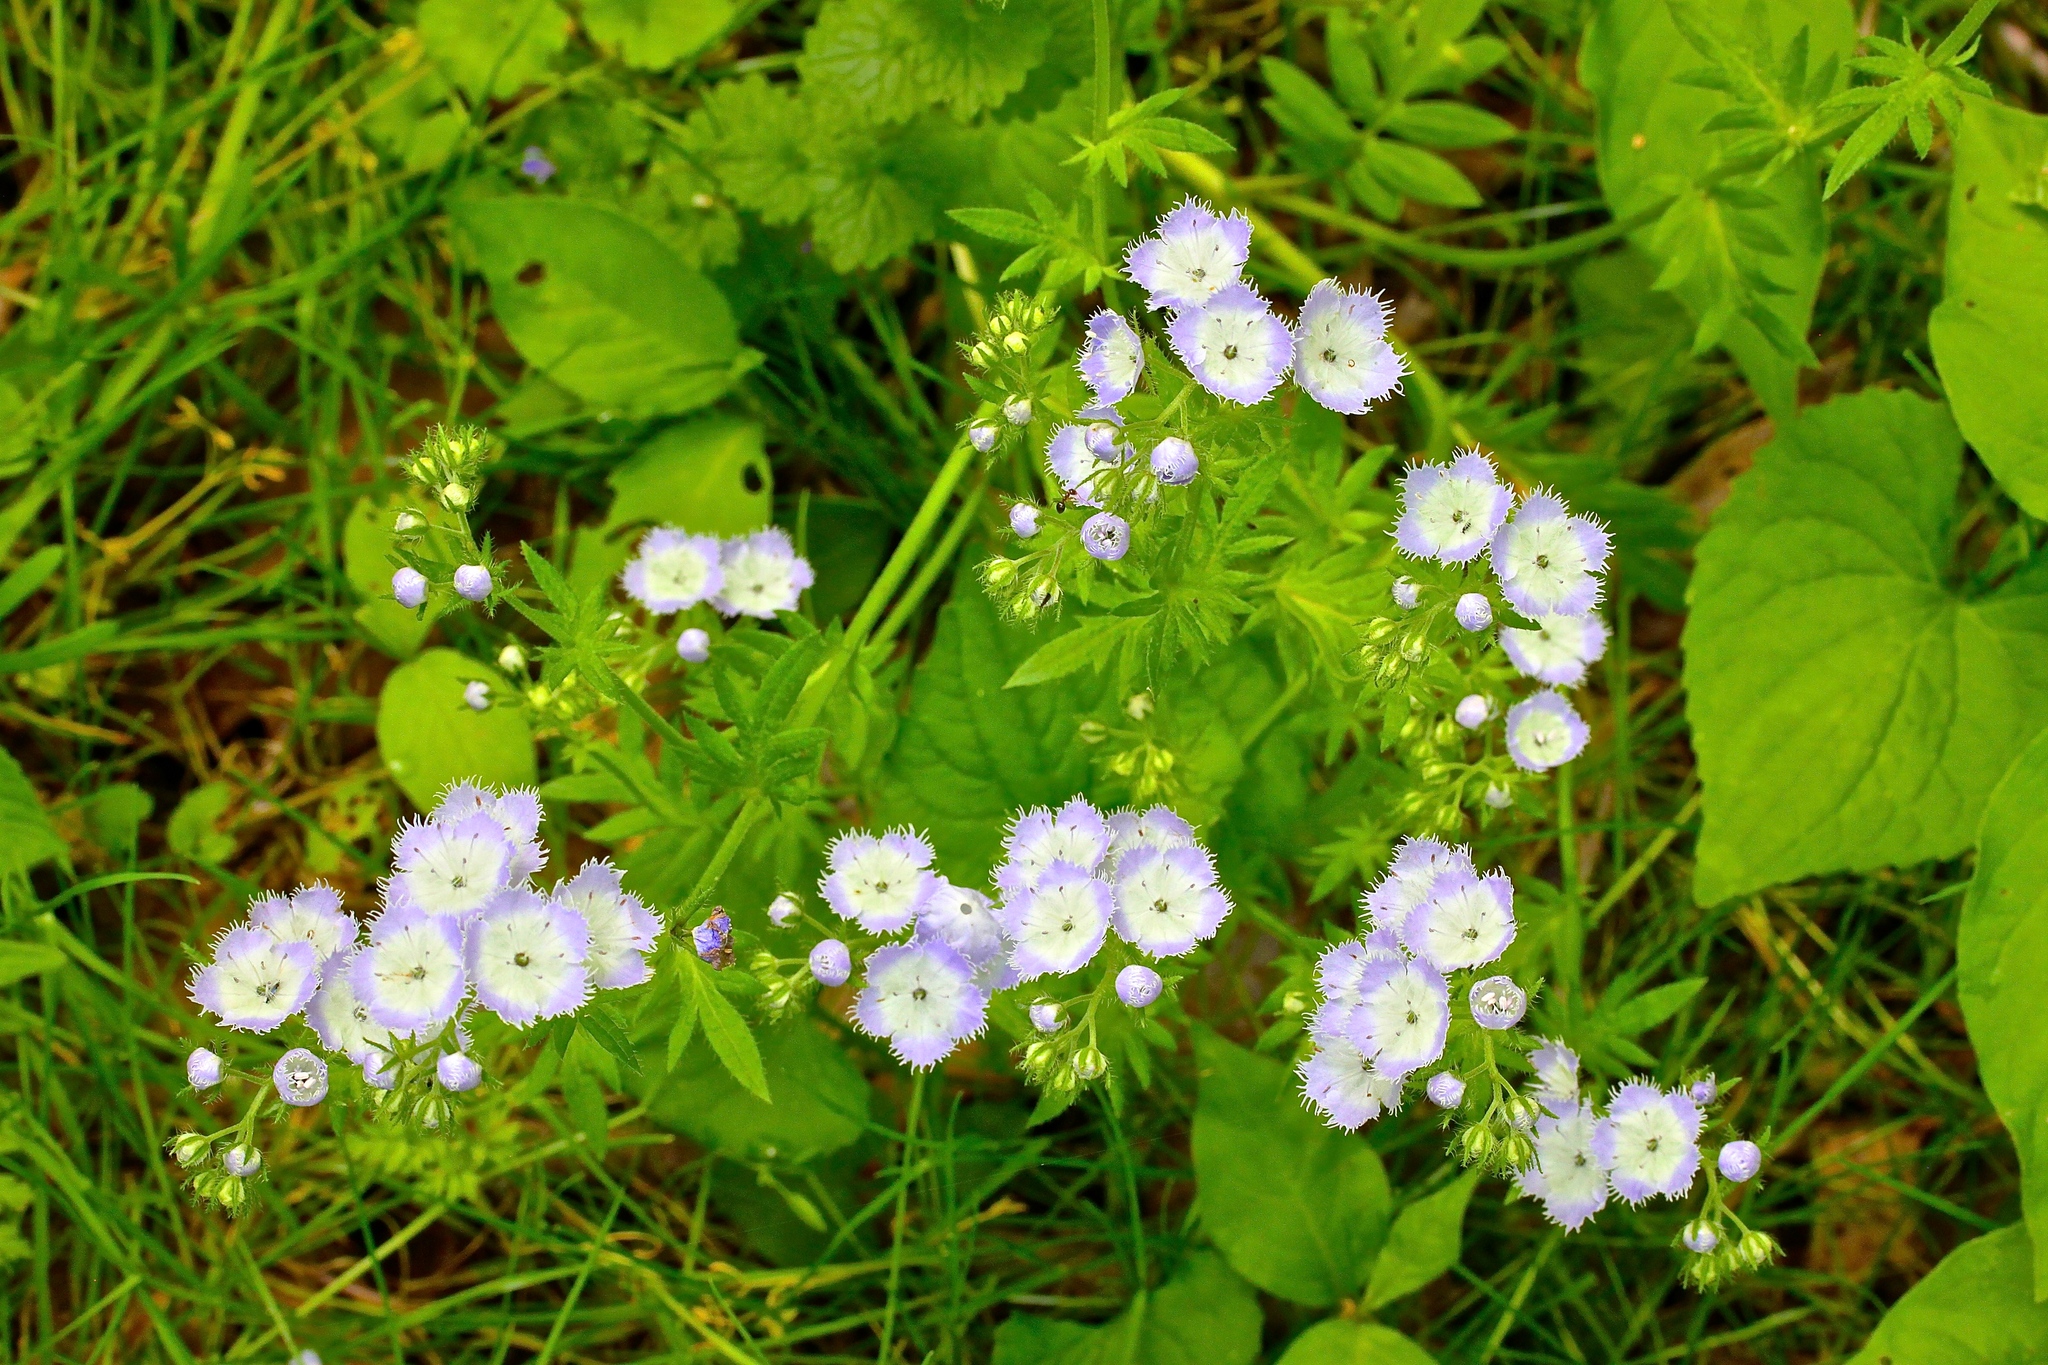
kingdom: Plantae
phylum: Tracheophyta
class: Magnoliopsida
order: Boraginales
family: Hydrophyllaceae
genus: Phacelia
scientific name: Phacelia purshii
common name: Miami-mist
